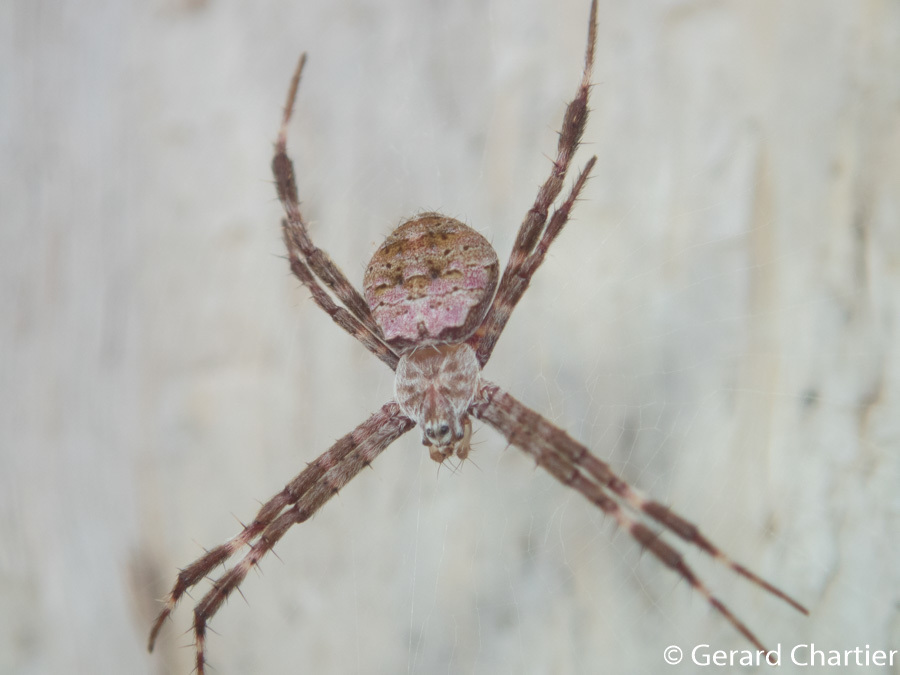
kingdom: Animalia
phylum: Arthropoda
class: Arachnida
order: Araneae
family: Araneidae
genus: Argiope
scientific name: Argiope hoiseni
